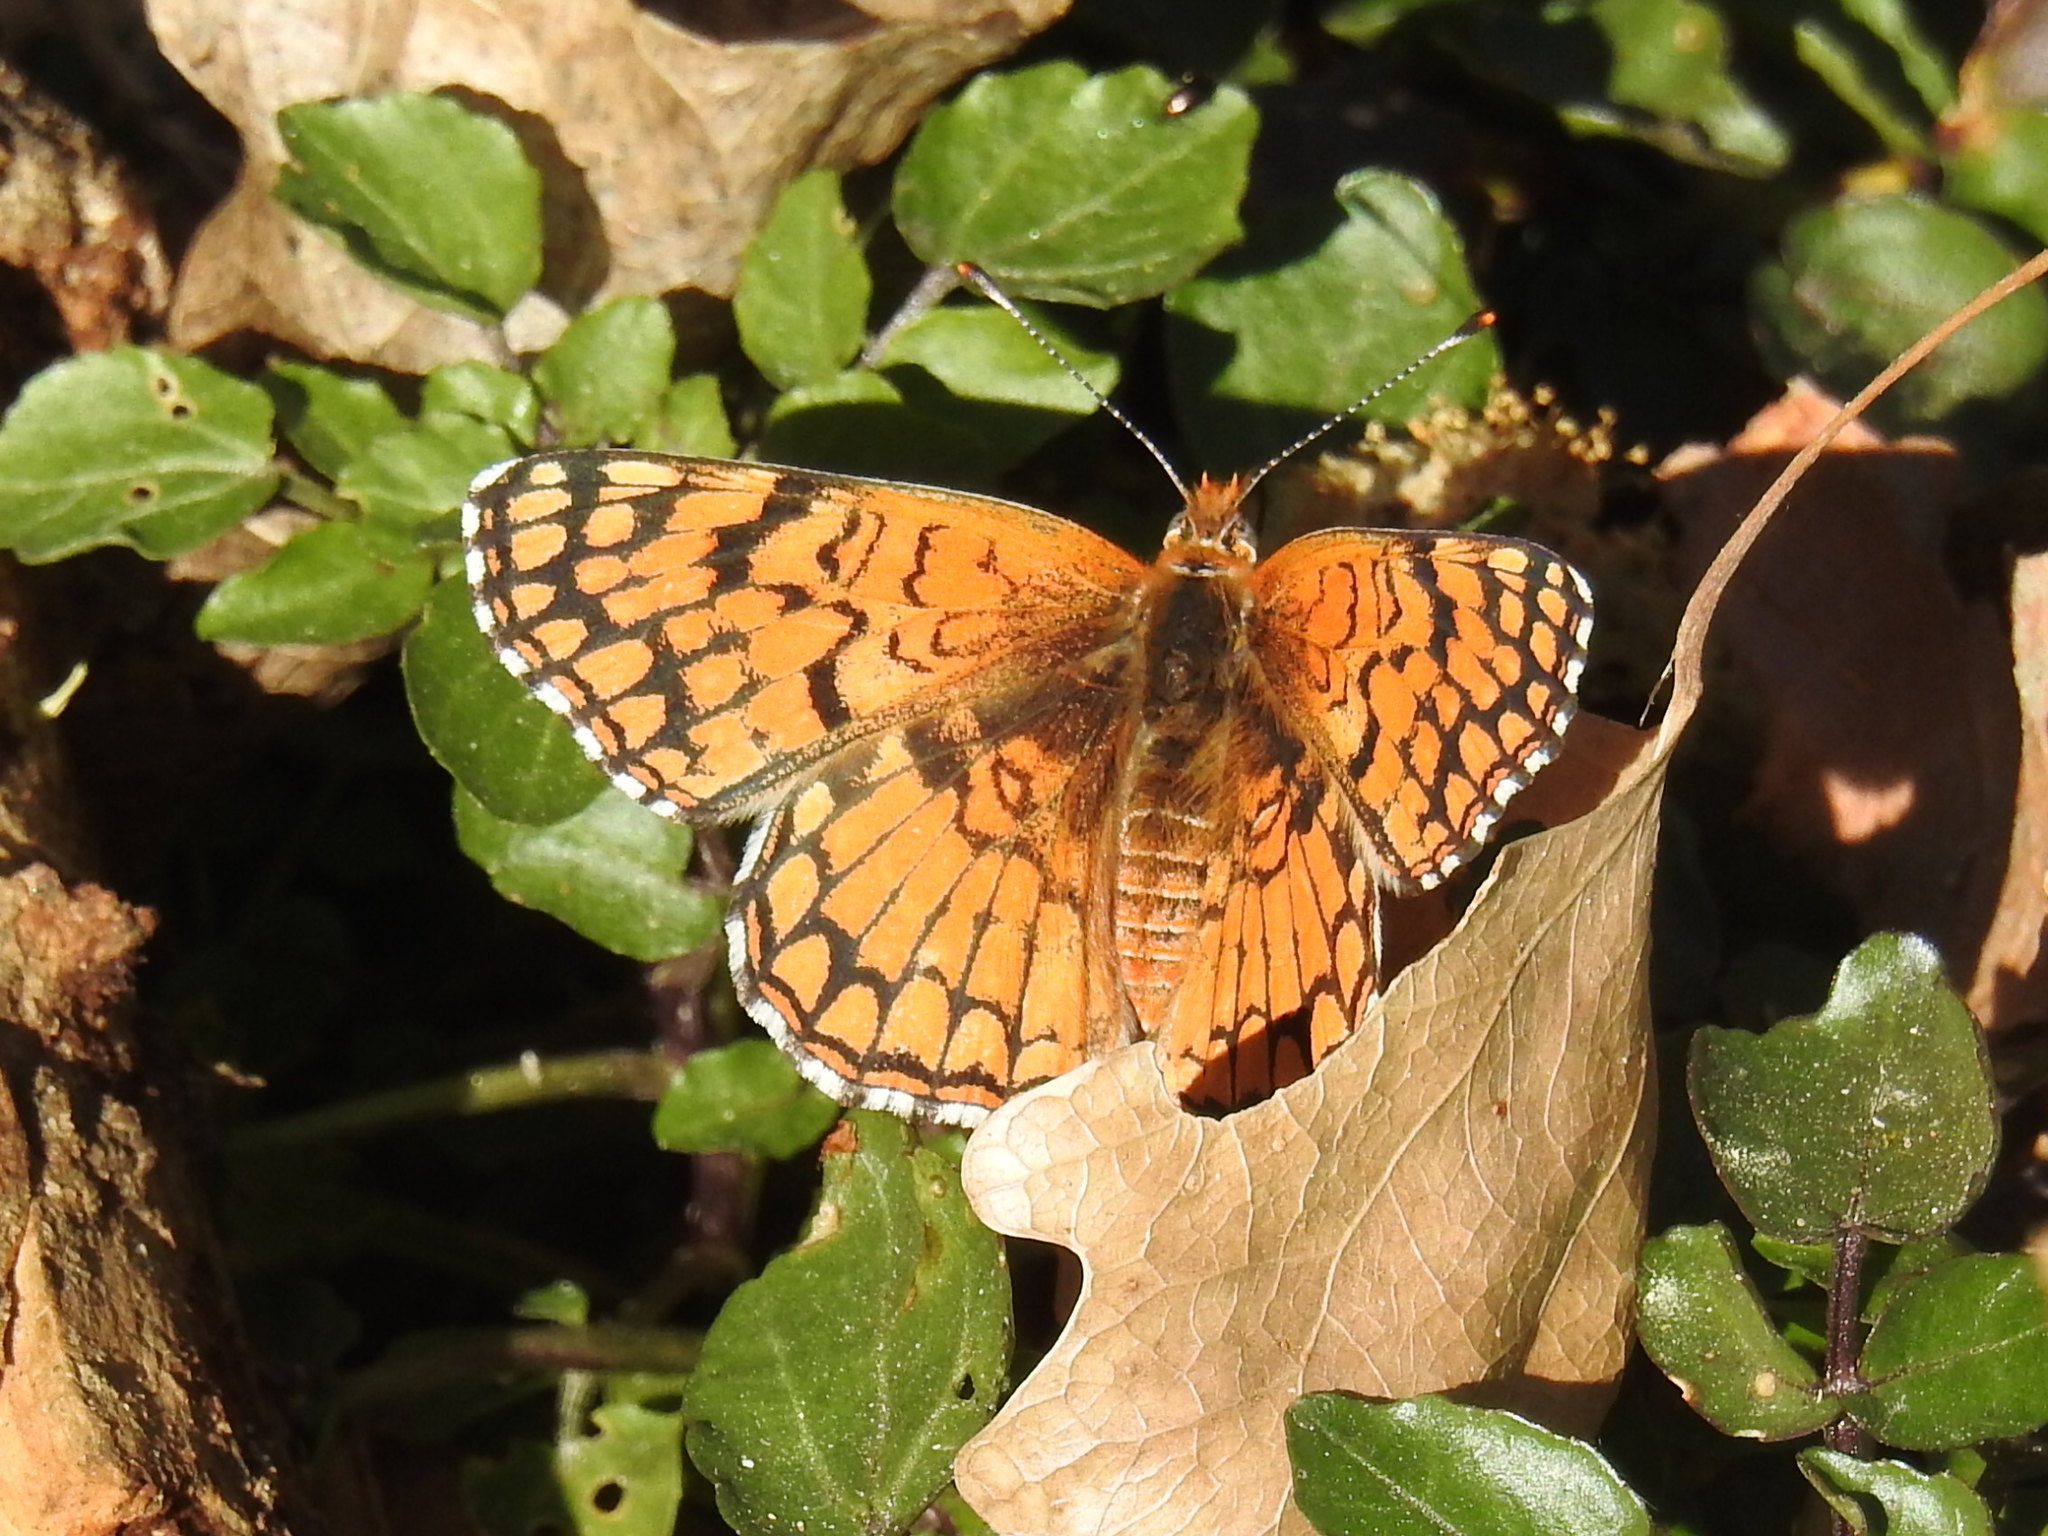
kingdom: Animalia
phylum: Arthropoda
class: Insecta
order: Lepidoptera
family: Nymphalidae
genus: Chlosyne
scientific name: Chlosyne acastus
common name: Sagebrush checkerspot
